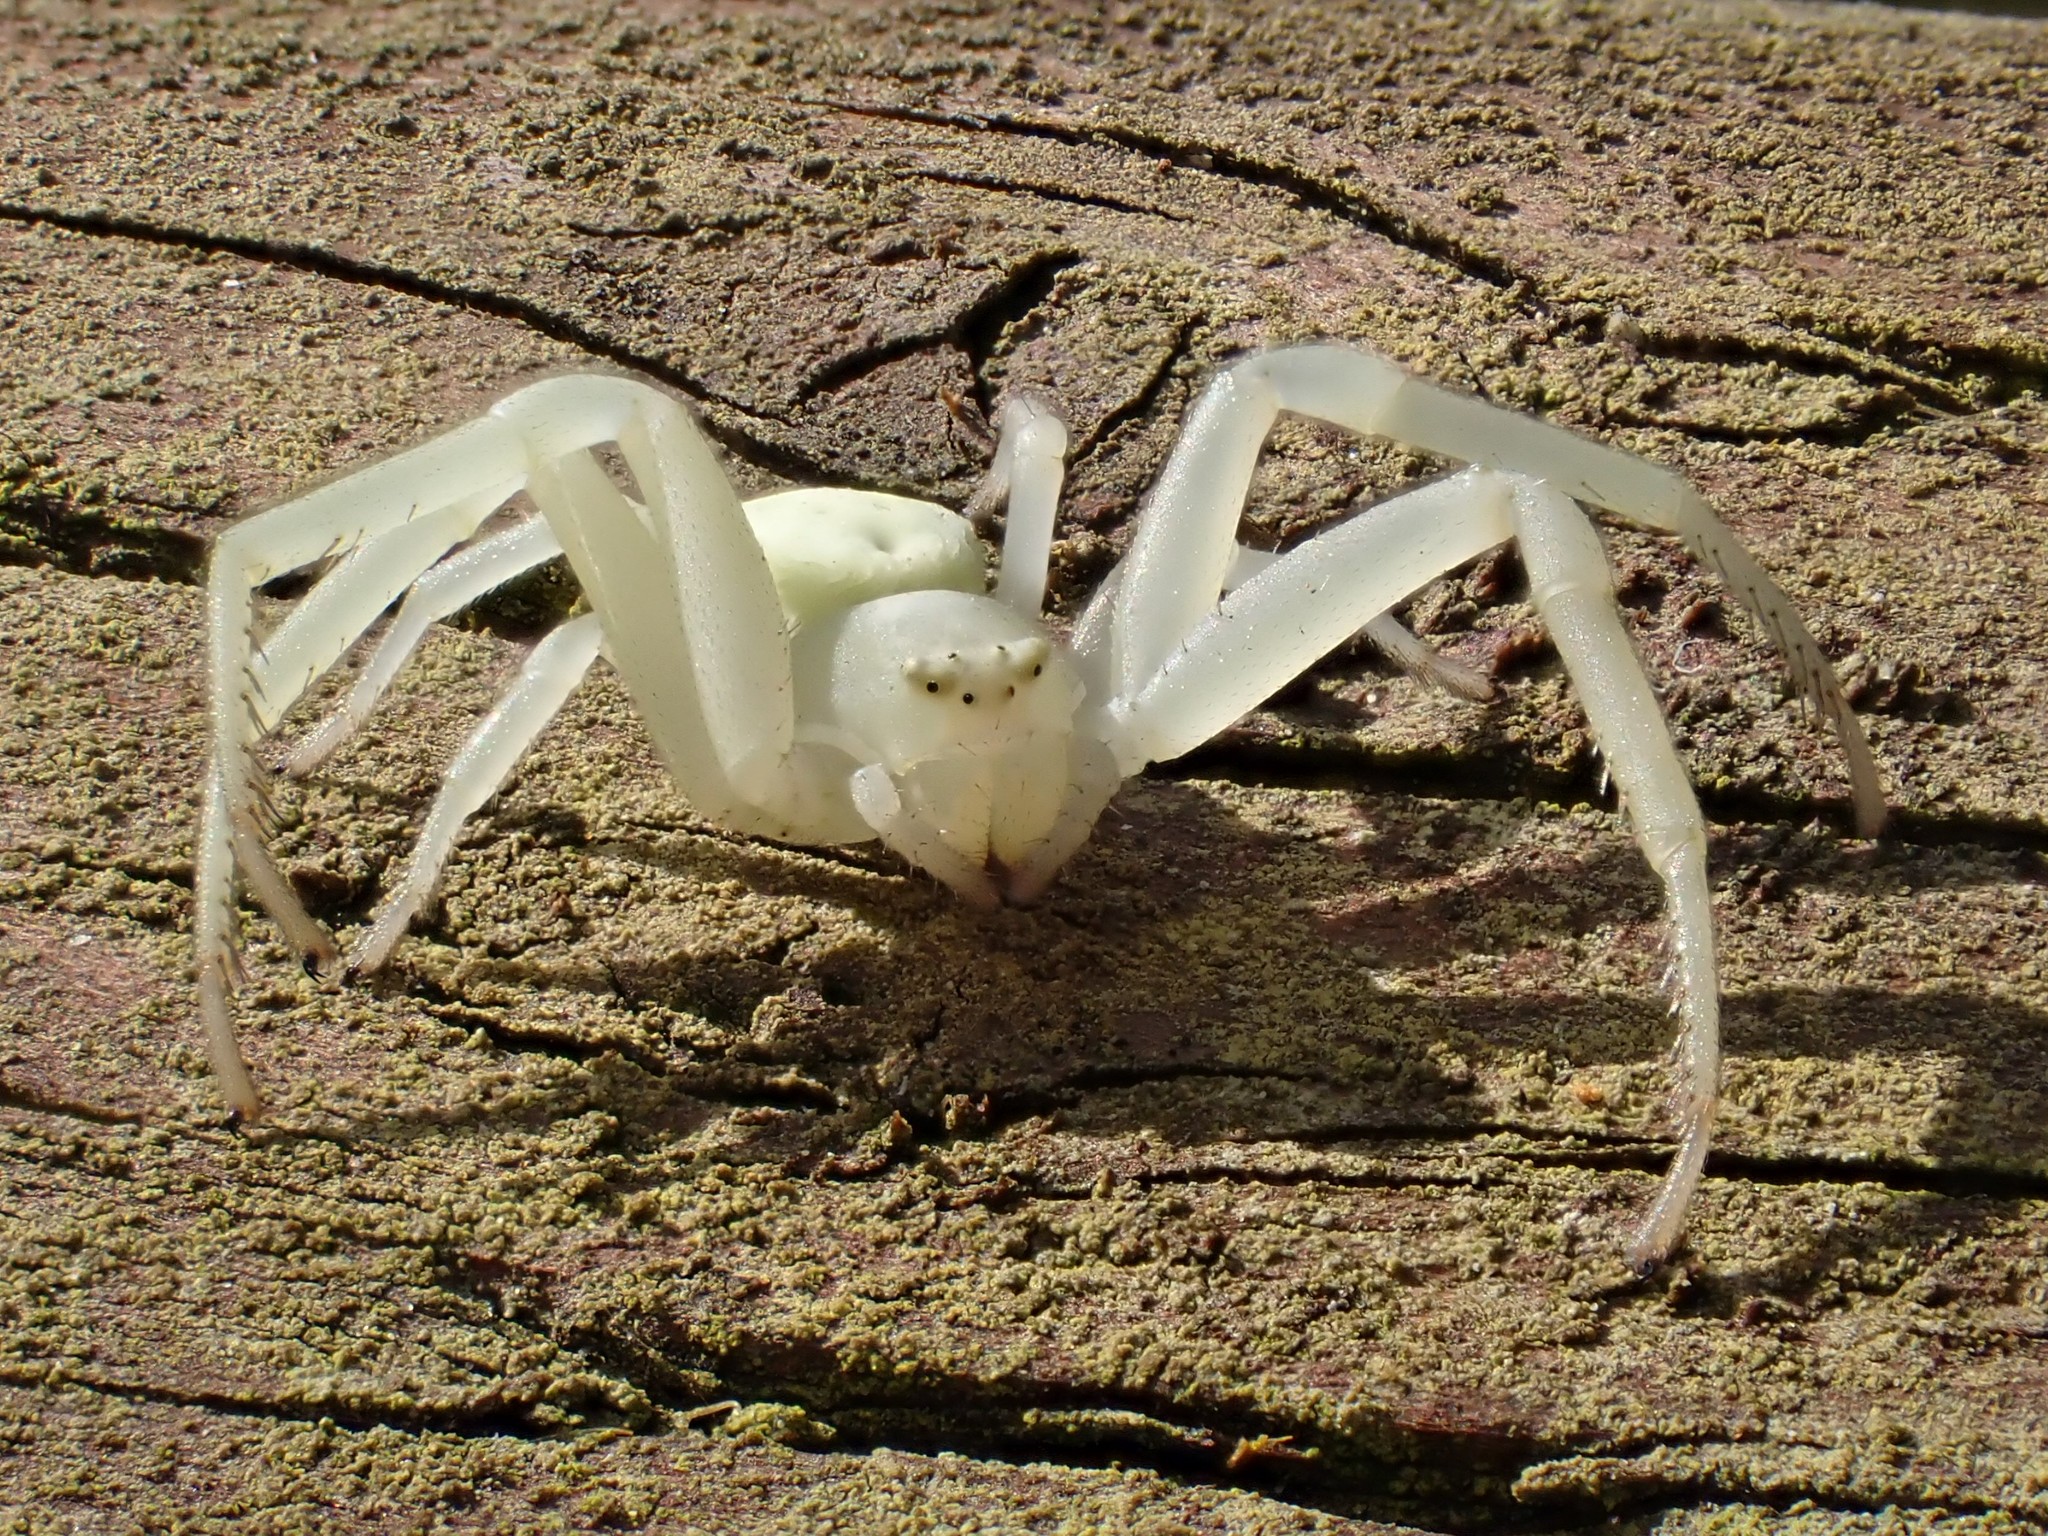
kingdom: Animalia
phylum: Arthropoda
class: Arachnida
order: Araneae
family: Thomisidae
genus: Misumena
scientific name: Misumena vatia
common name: Goldenrod crab spider
